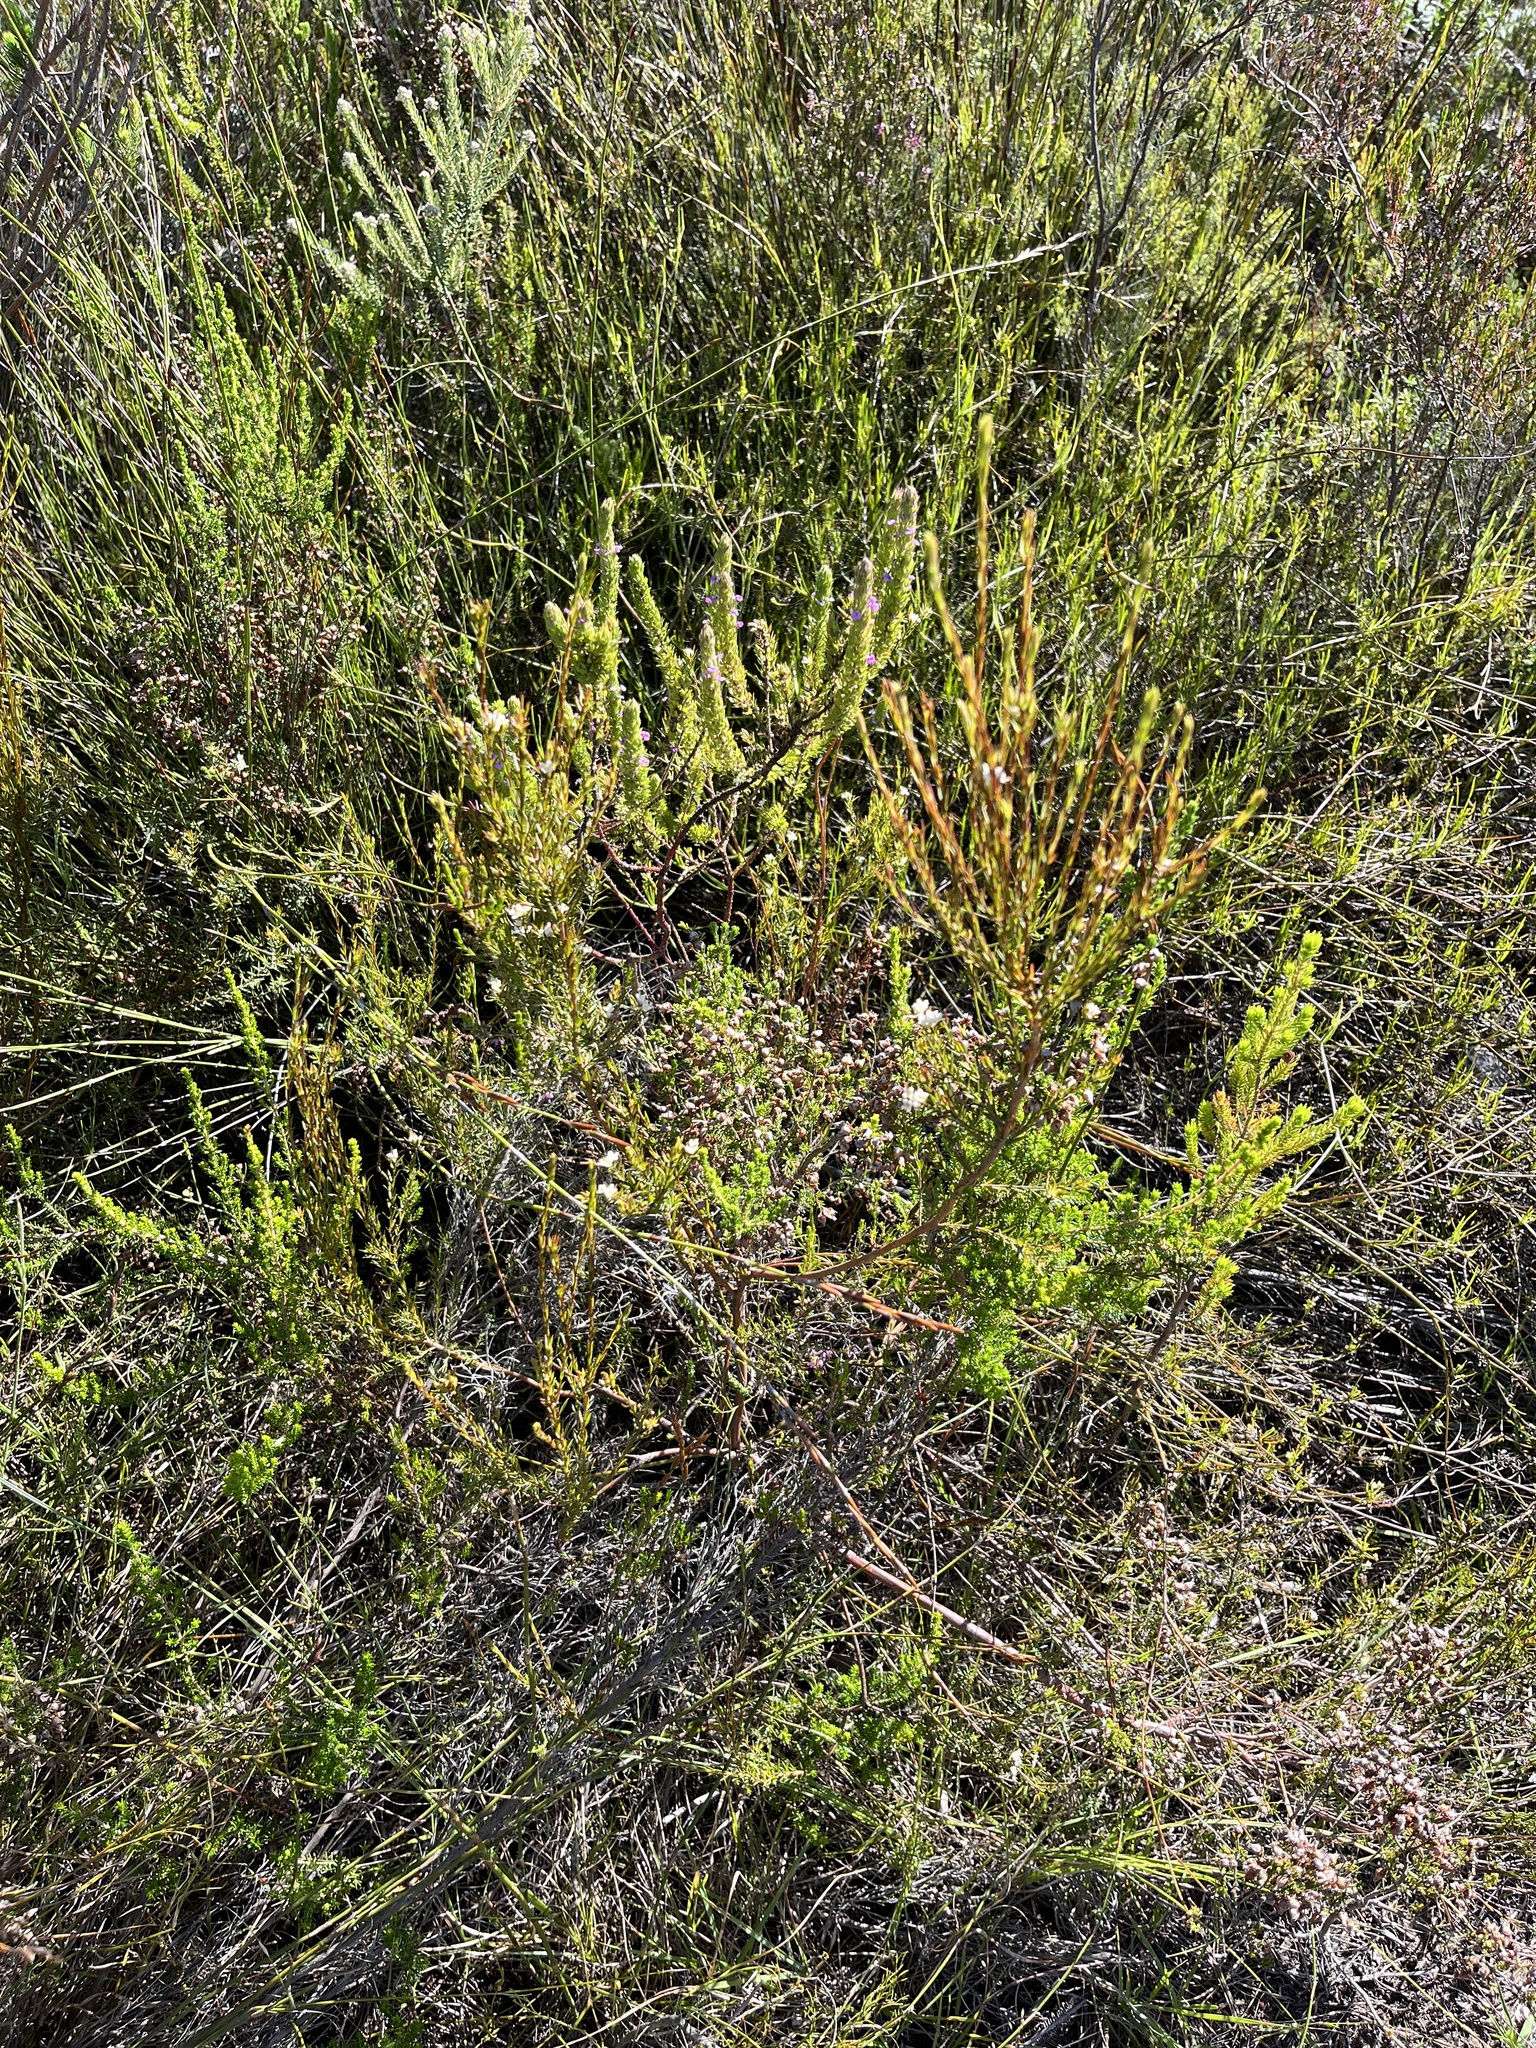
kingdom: Plantae
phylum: Tracheophyta
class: Magnoliopsida
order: Malvales
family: Thymelaeaceae
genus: Lachnaea
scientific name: Lachnaea diosmoides
